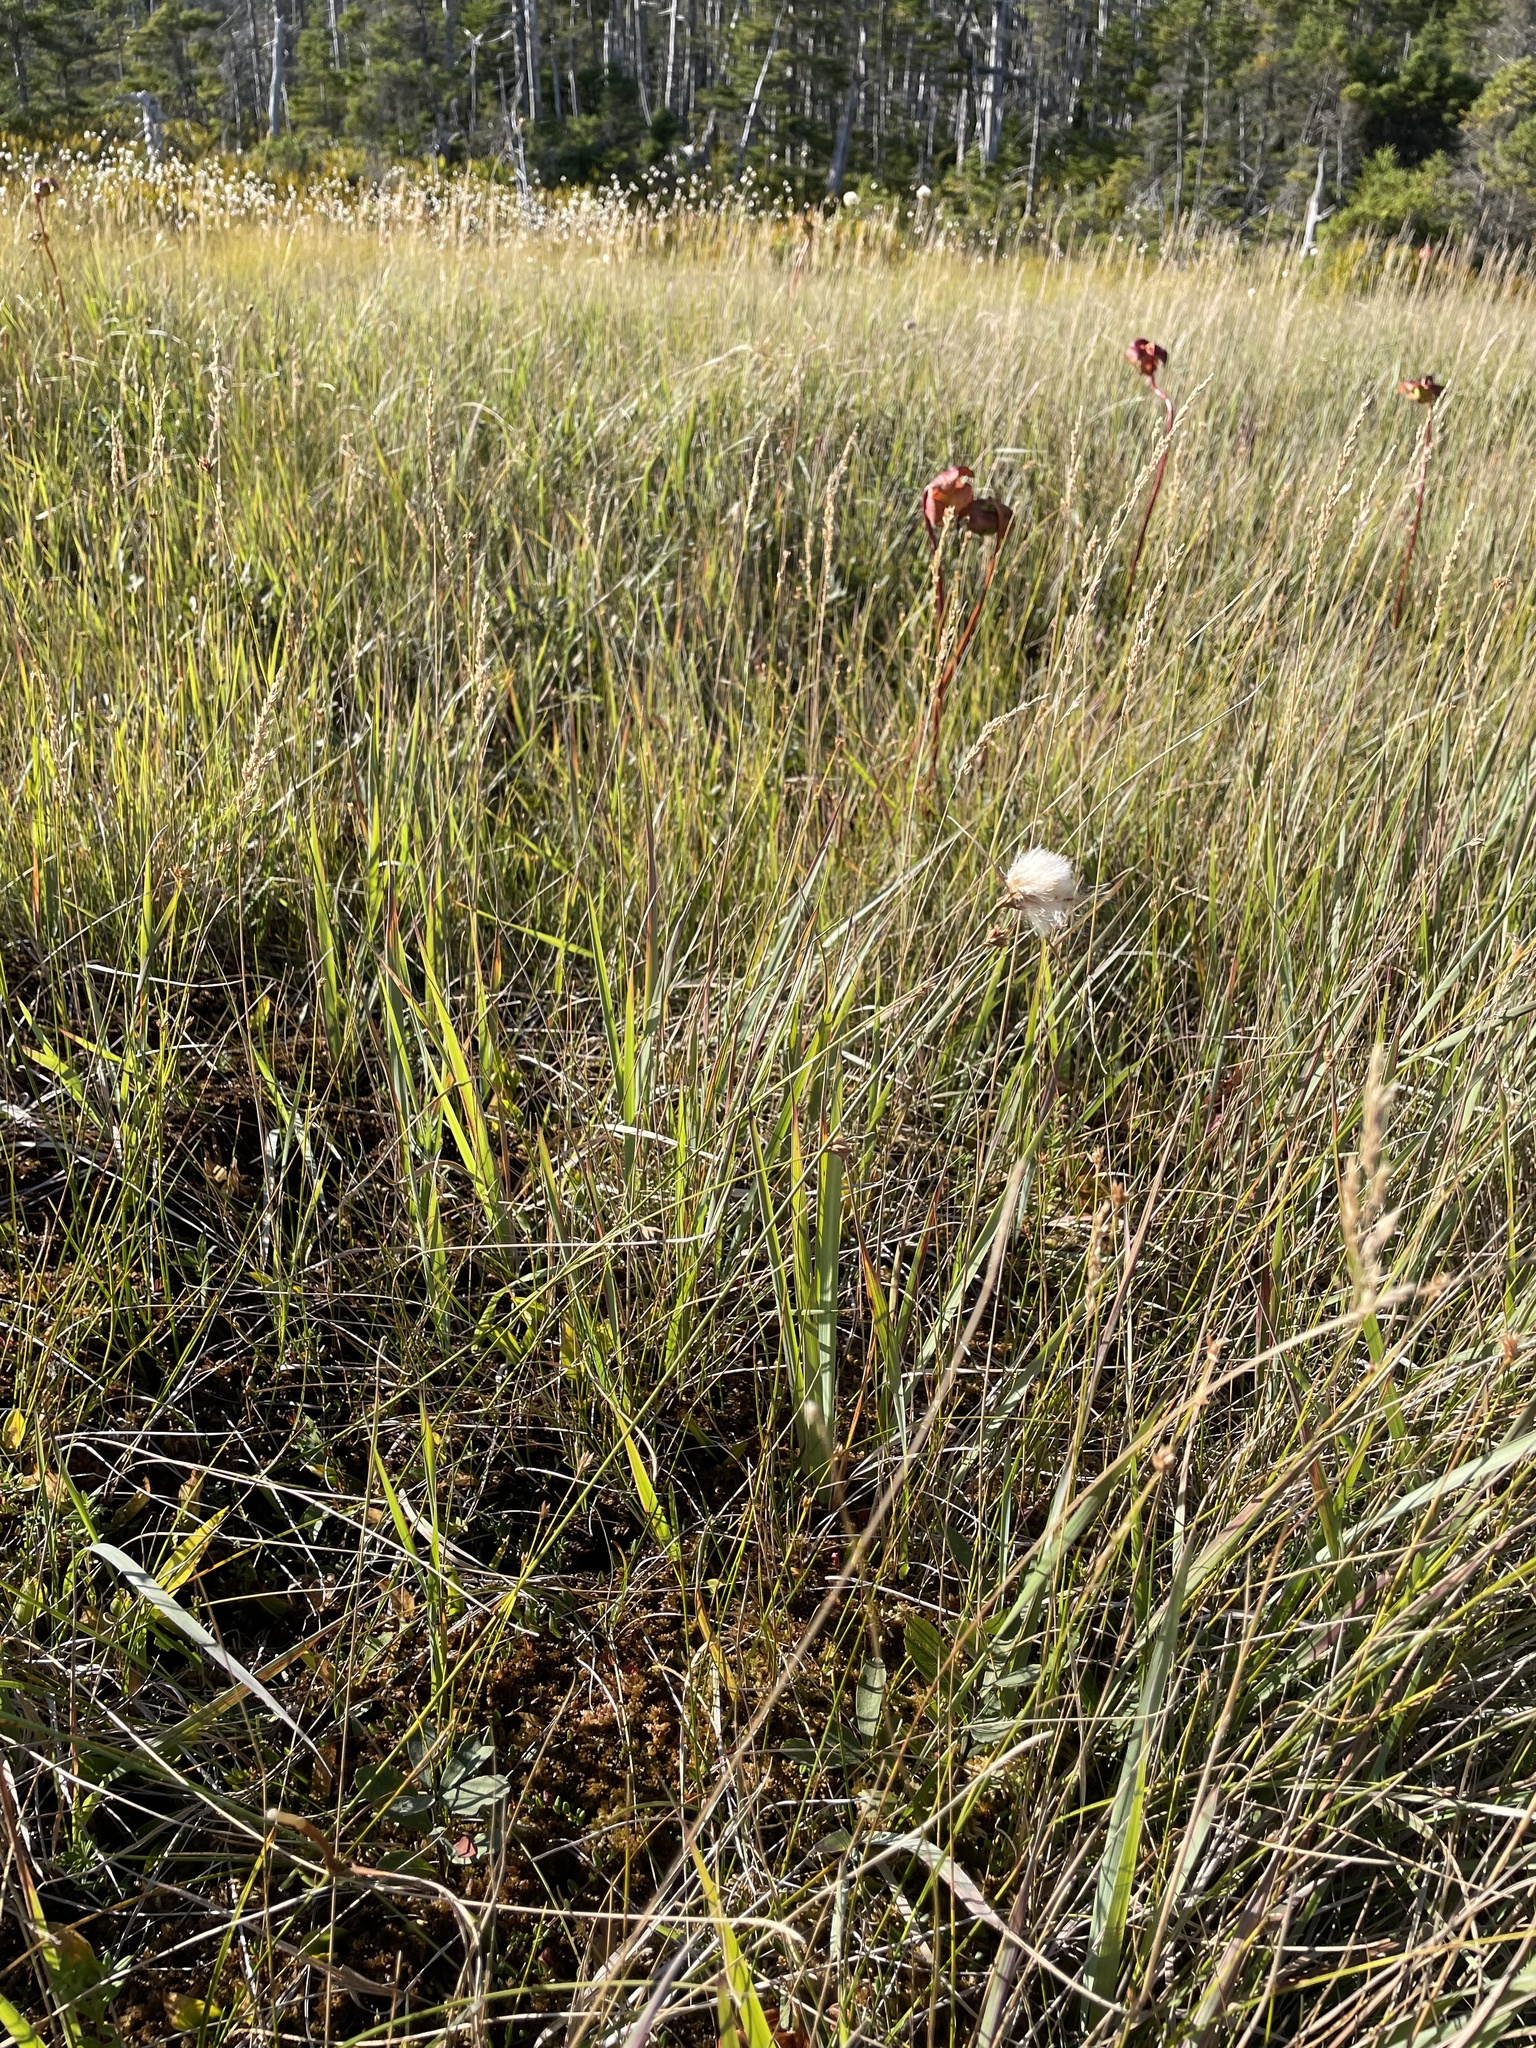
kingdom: Plantae
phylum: Tracheophyta
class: Liliopsida
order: Poales
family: Cyperaceae
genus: Eriophorum
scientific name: Eriophorum virginicum
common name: Tawny cottongrass
